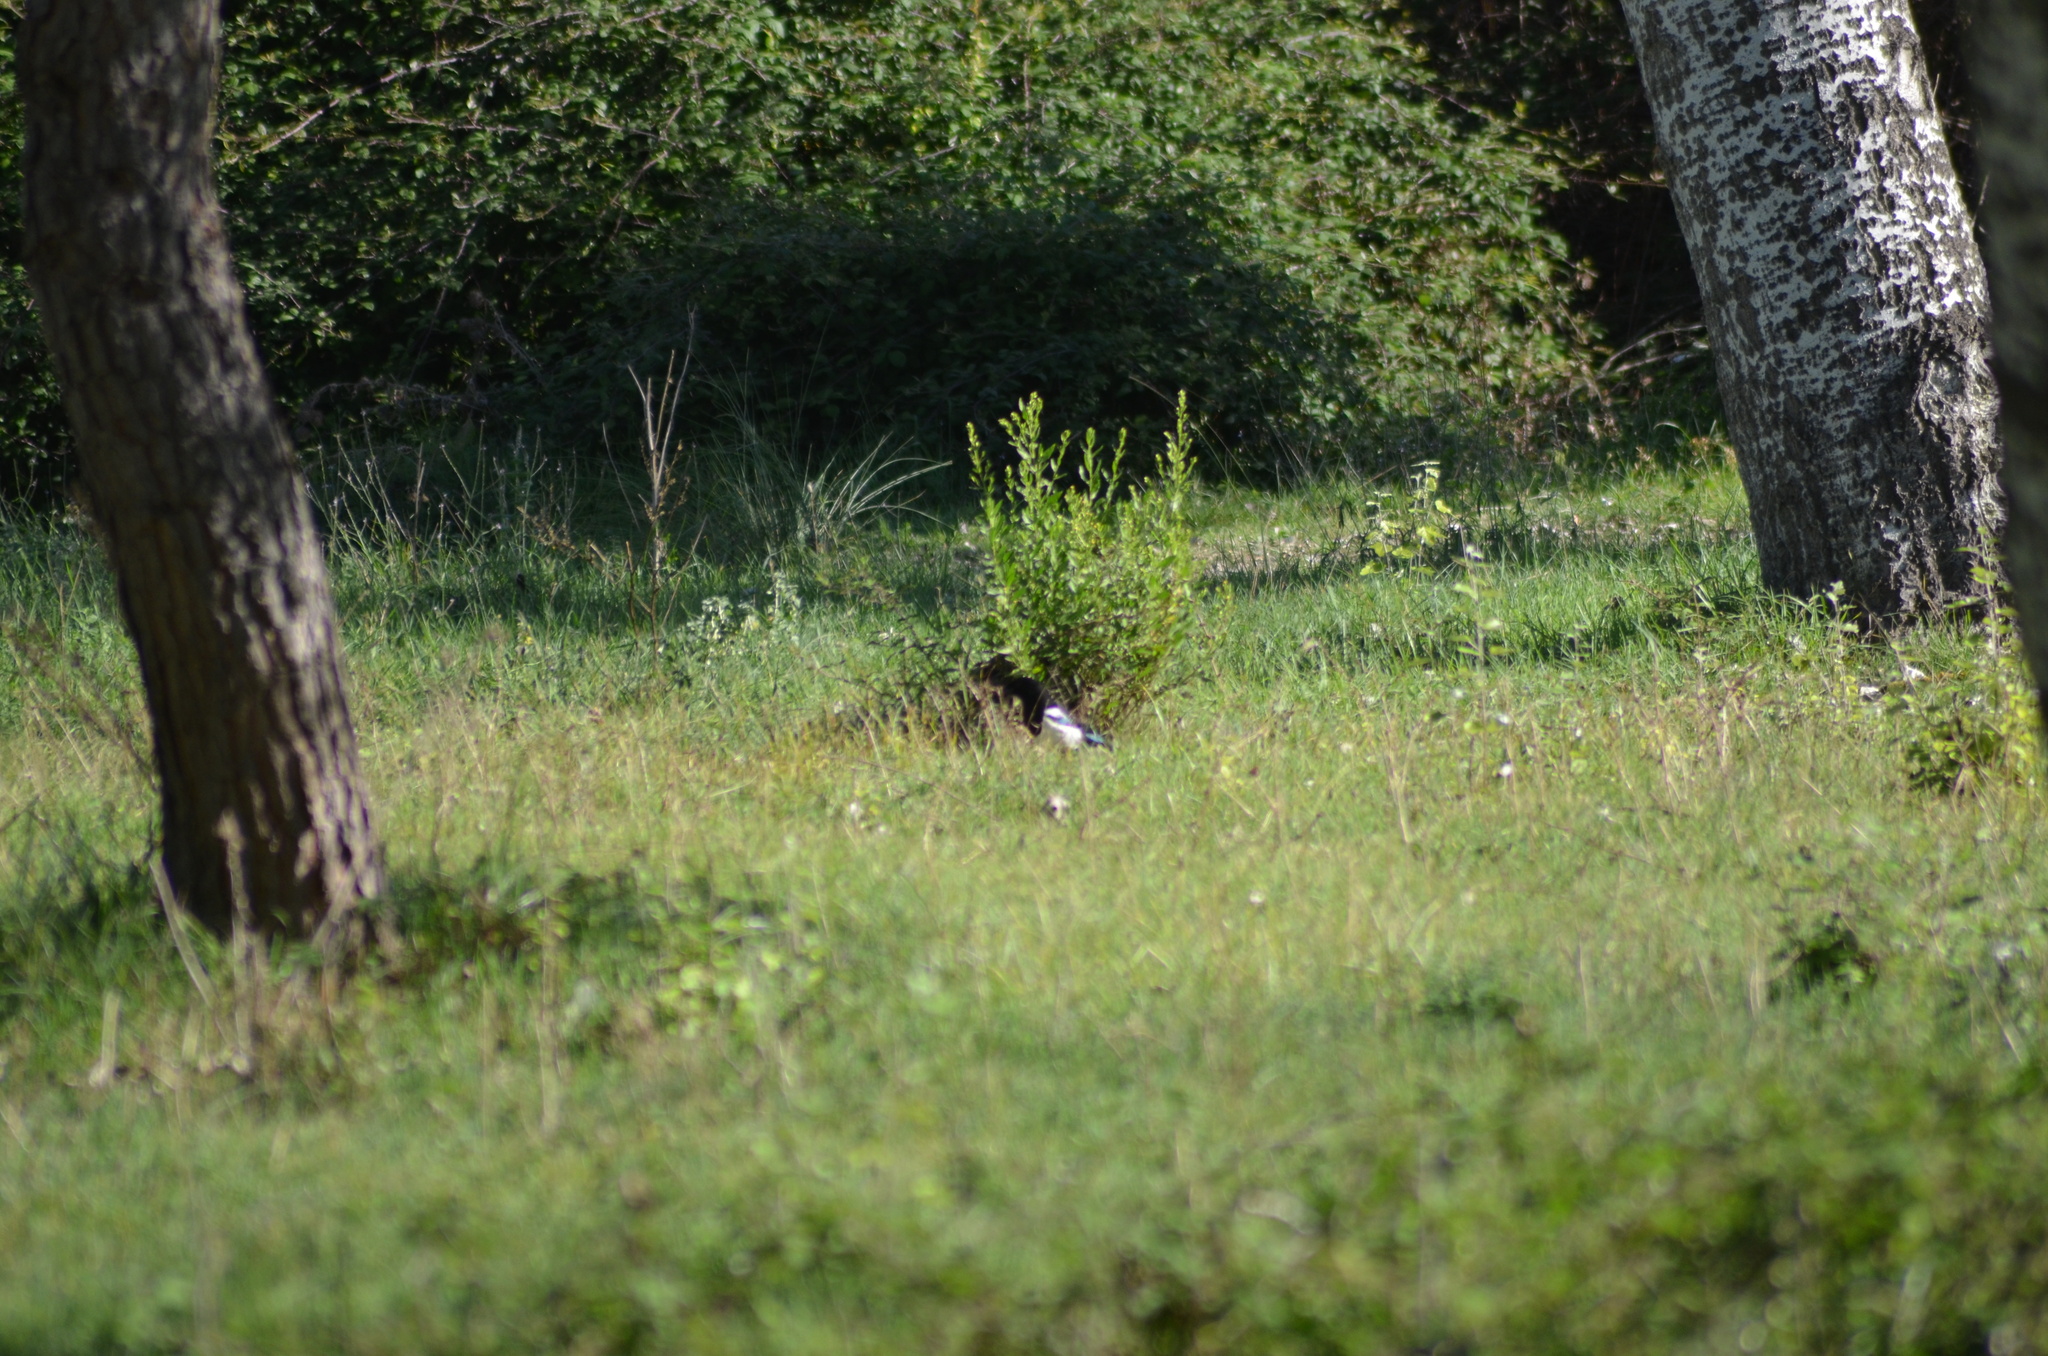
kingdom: Animalia
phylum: Chordata
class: Aves
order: Passeriformes
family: Corvidae
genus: Pica
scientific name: Pica pica
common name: Eurasian magpie
